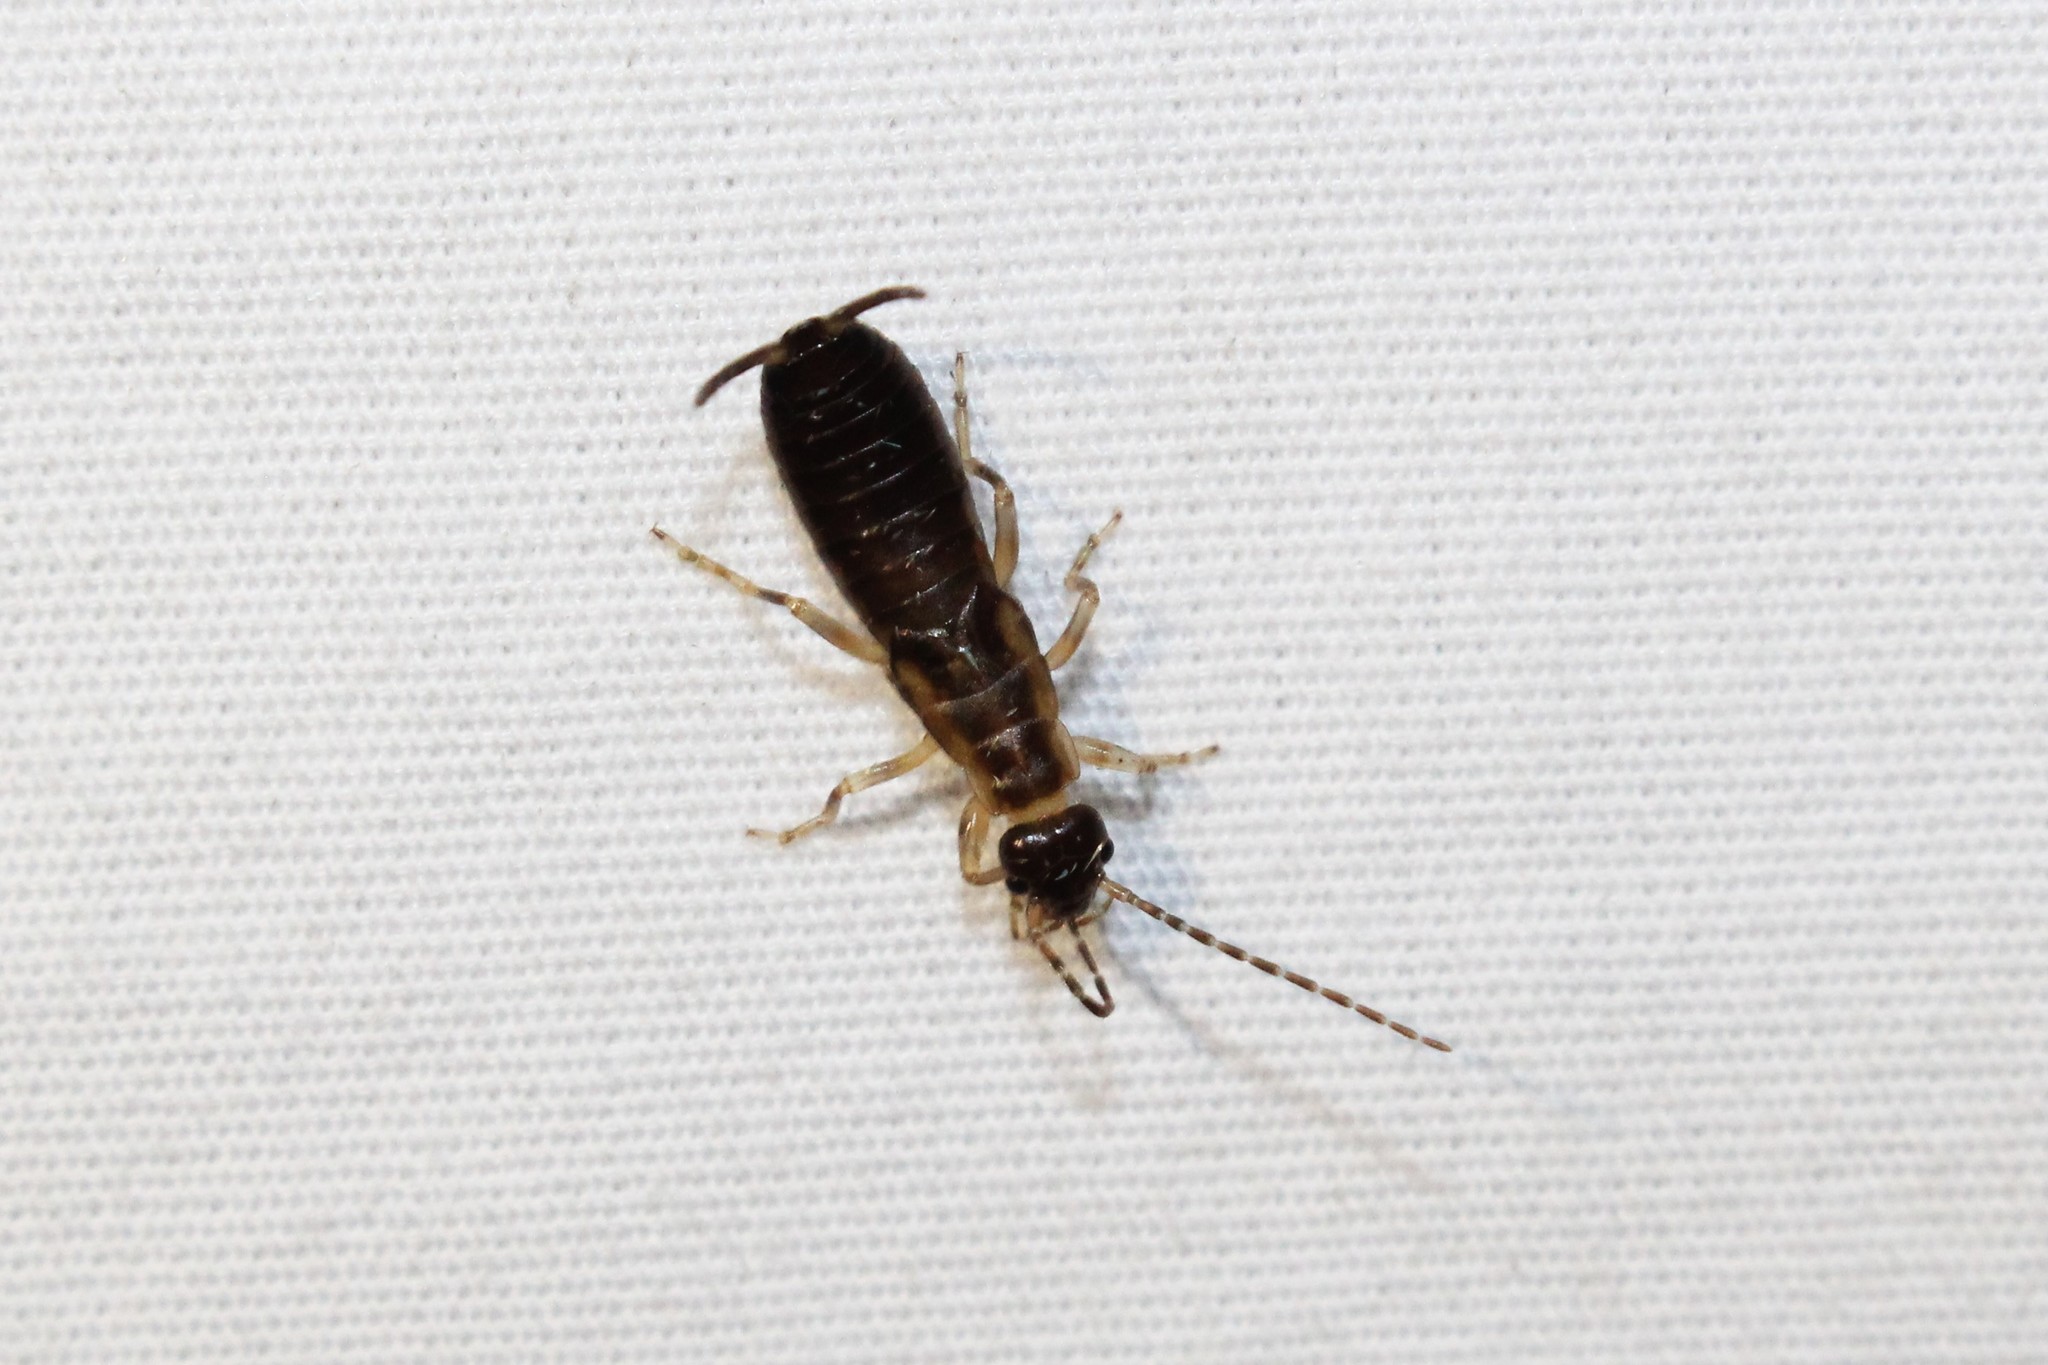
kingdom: Animalia
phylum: Arthropoda
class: Insecta
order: Dermaptera
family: Forficulidae
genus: Forficula
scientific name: Forficula
